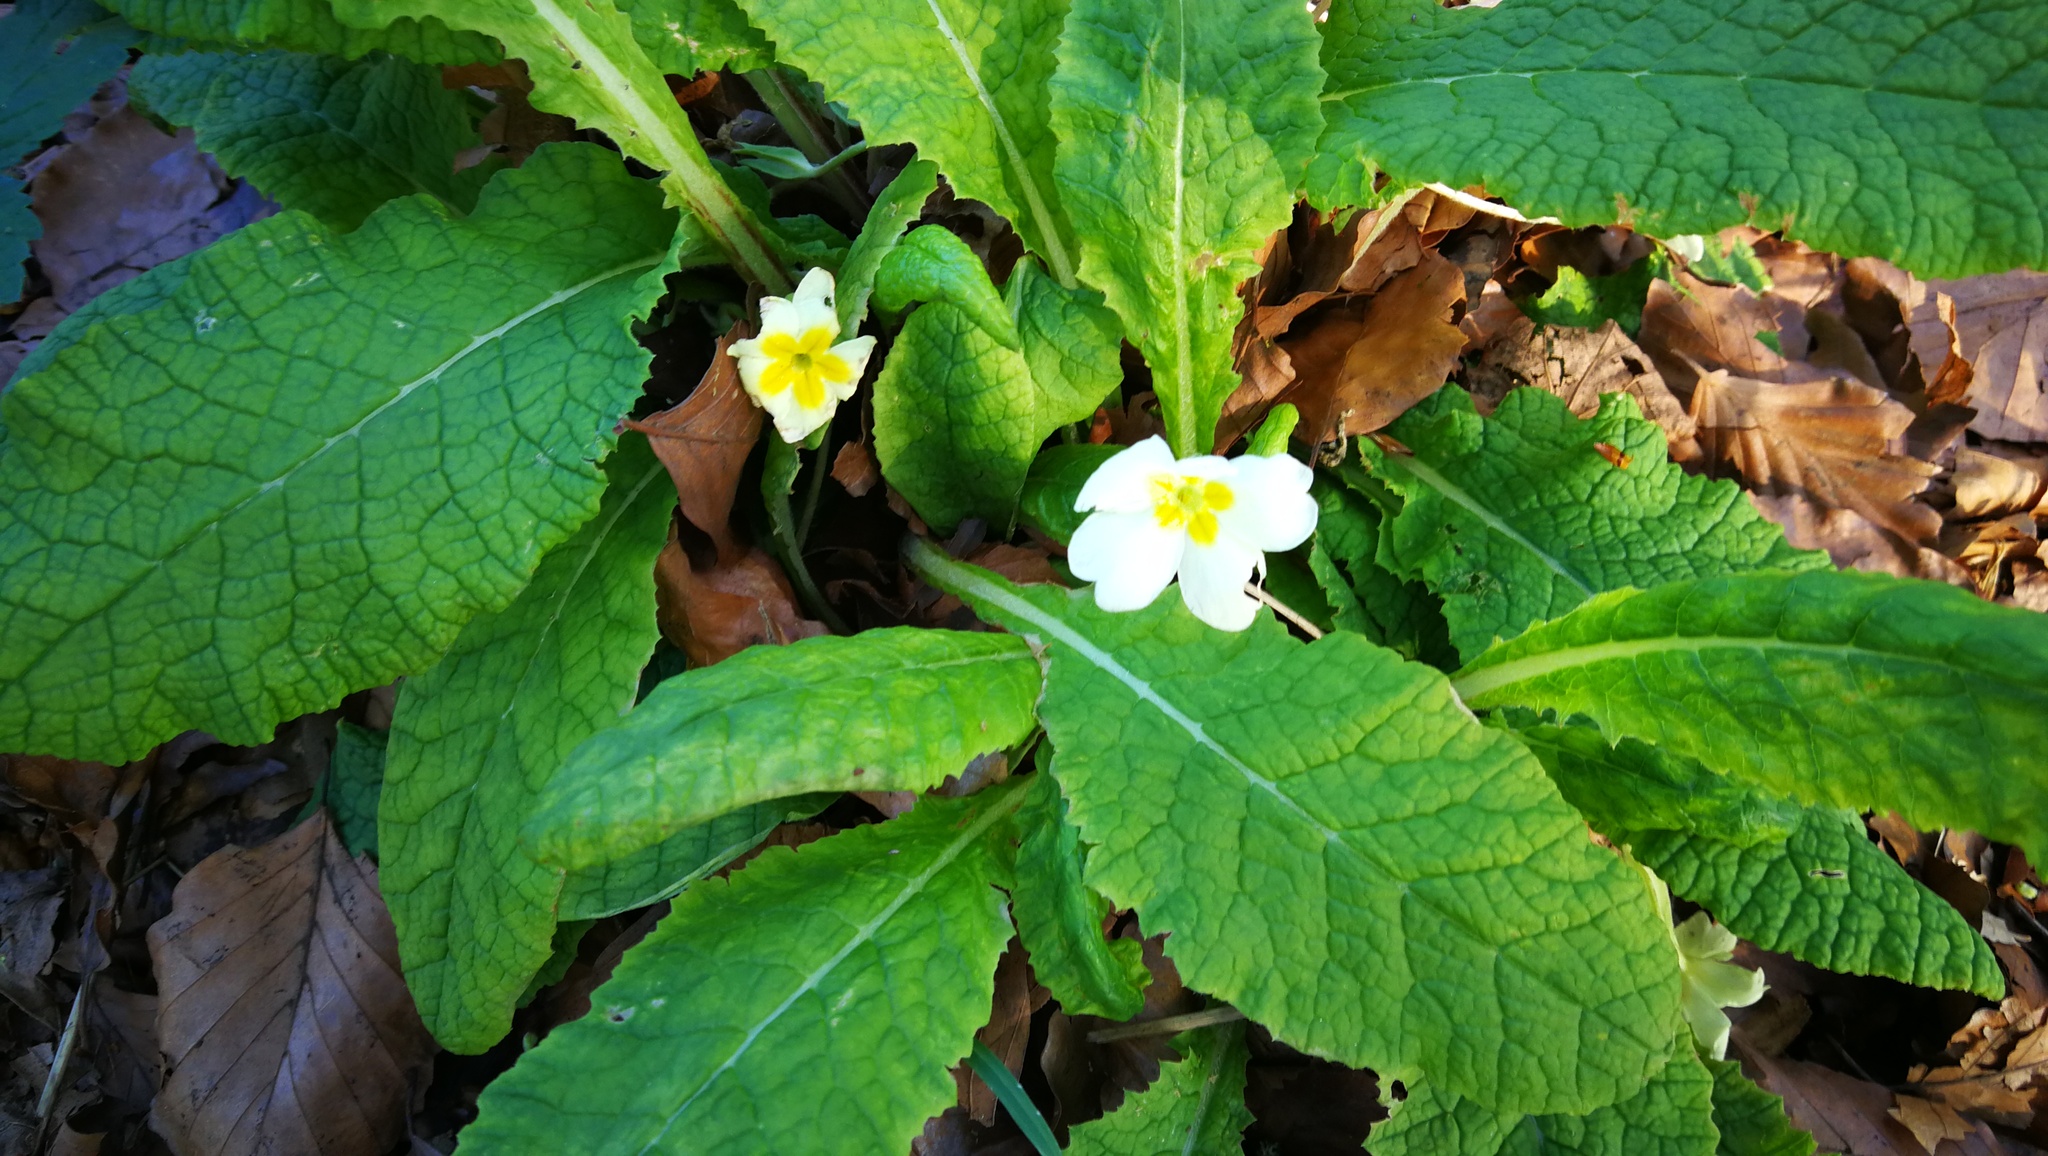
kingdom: Plantae
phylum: Tracheophyta
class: Magnoliopsida
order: Ericales
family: Primulaceae
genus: Primula
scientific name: Primula vulgaris
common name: Primrose
